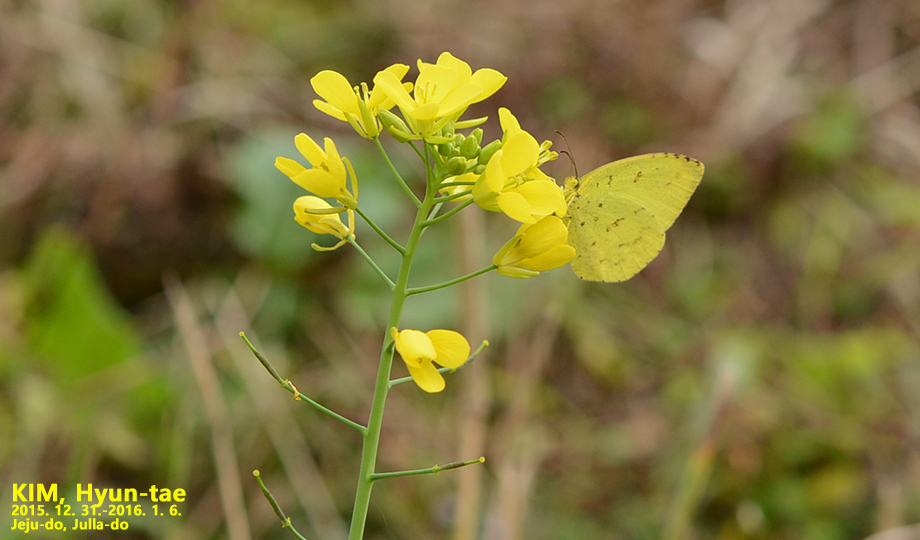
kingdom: Animalia
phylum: Arthropoda
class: Insecta
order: Lepidoptera
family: Pieridae
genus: Eurema
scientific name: Eurema hecabe
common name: Pale grass yellow
